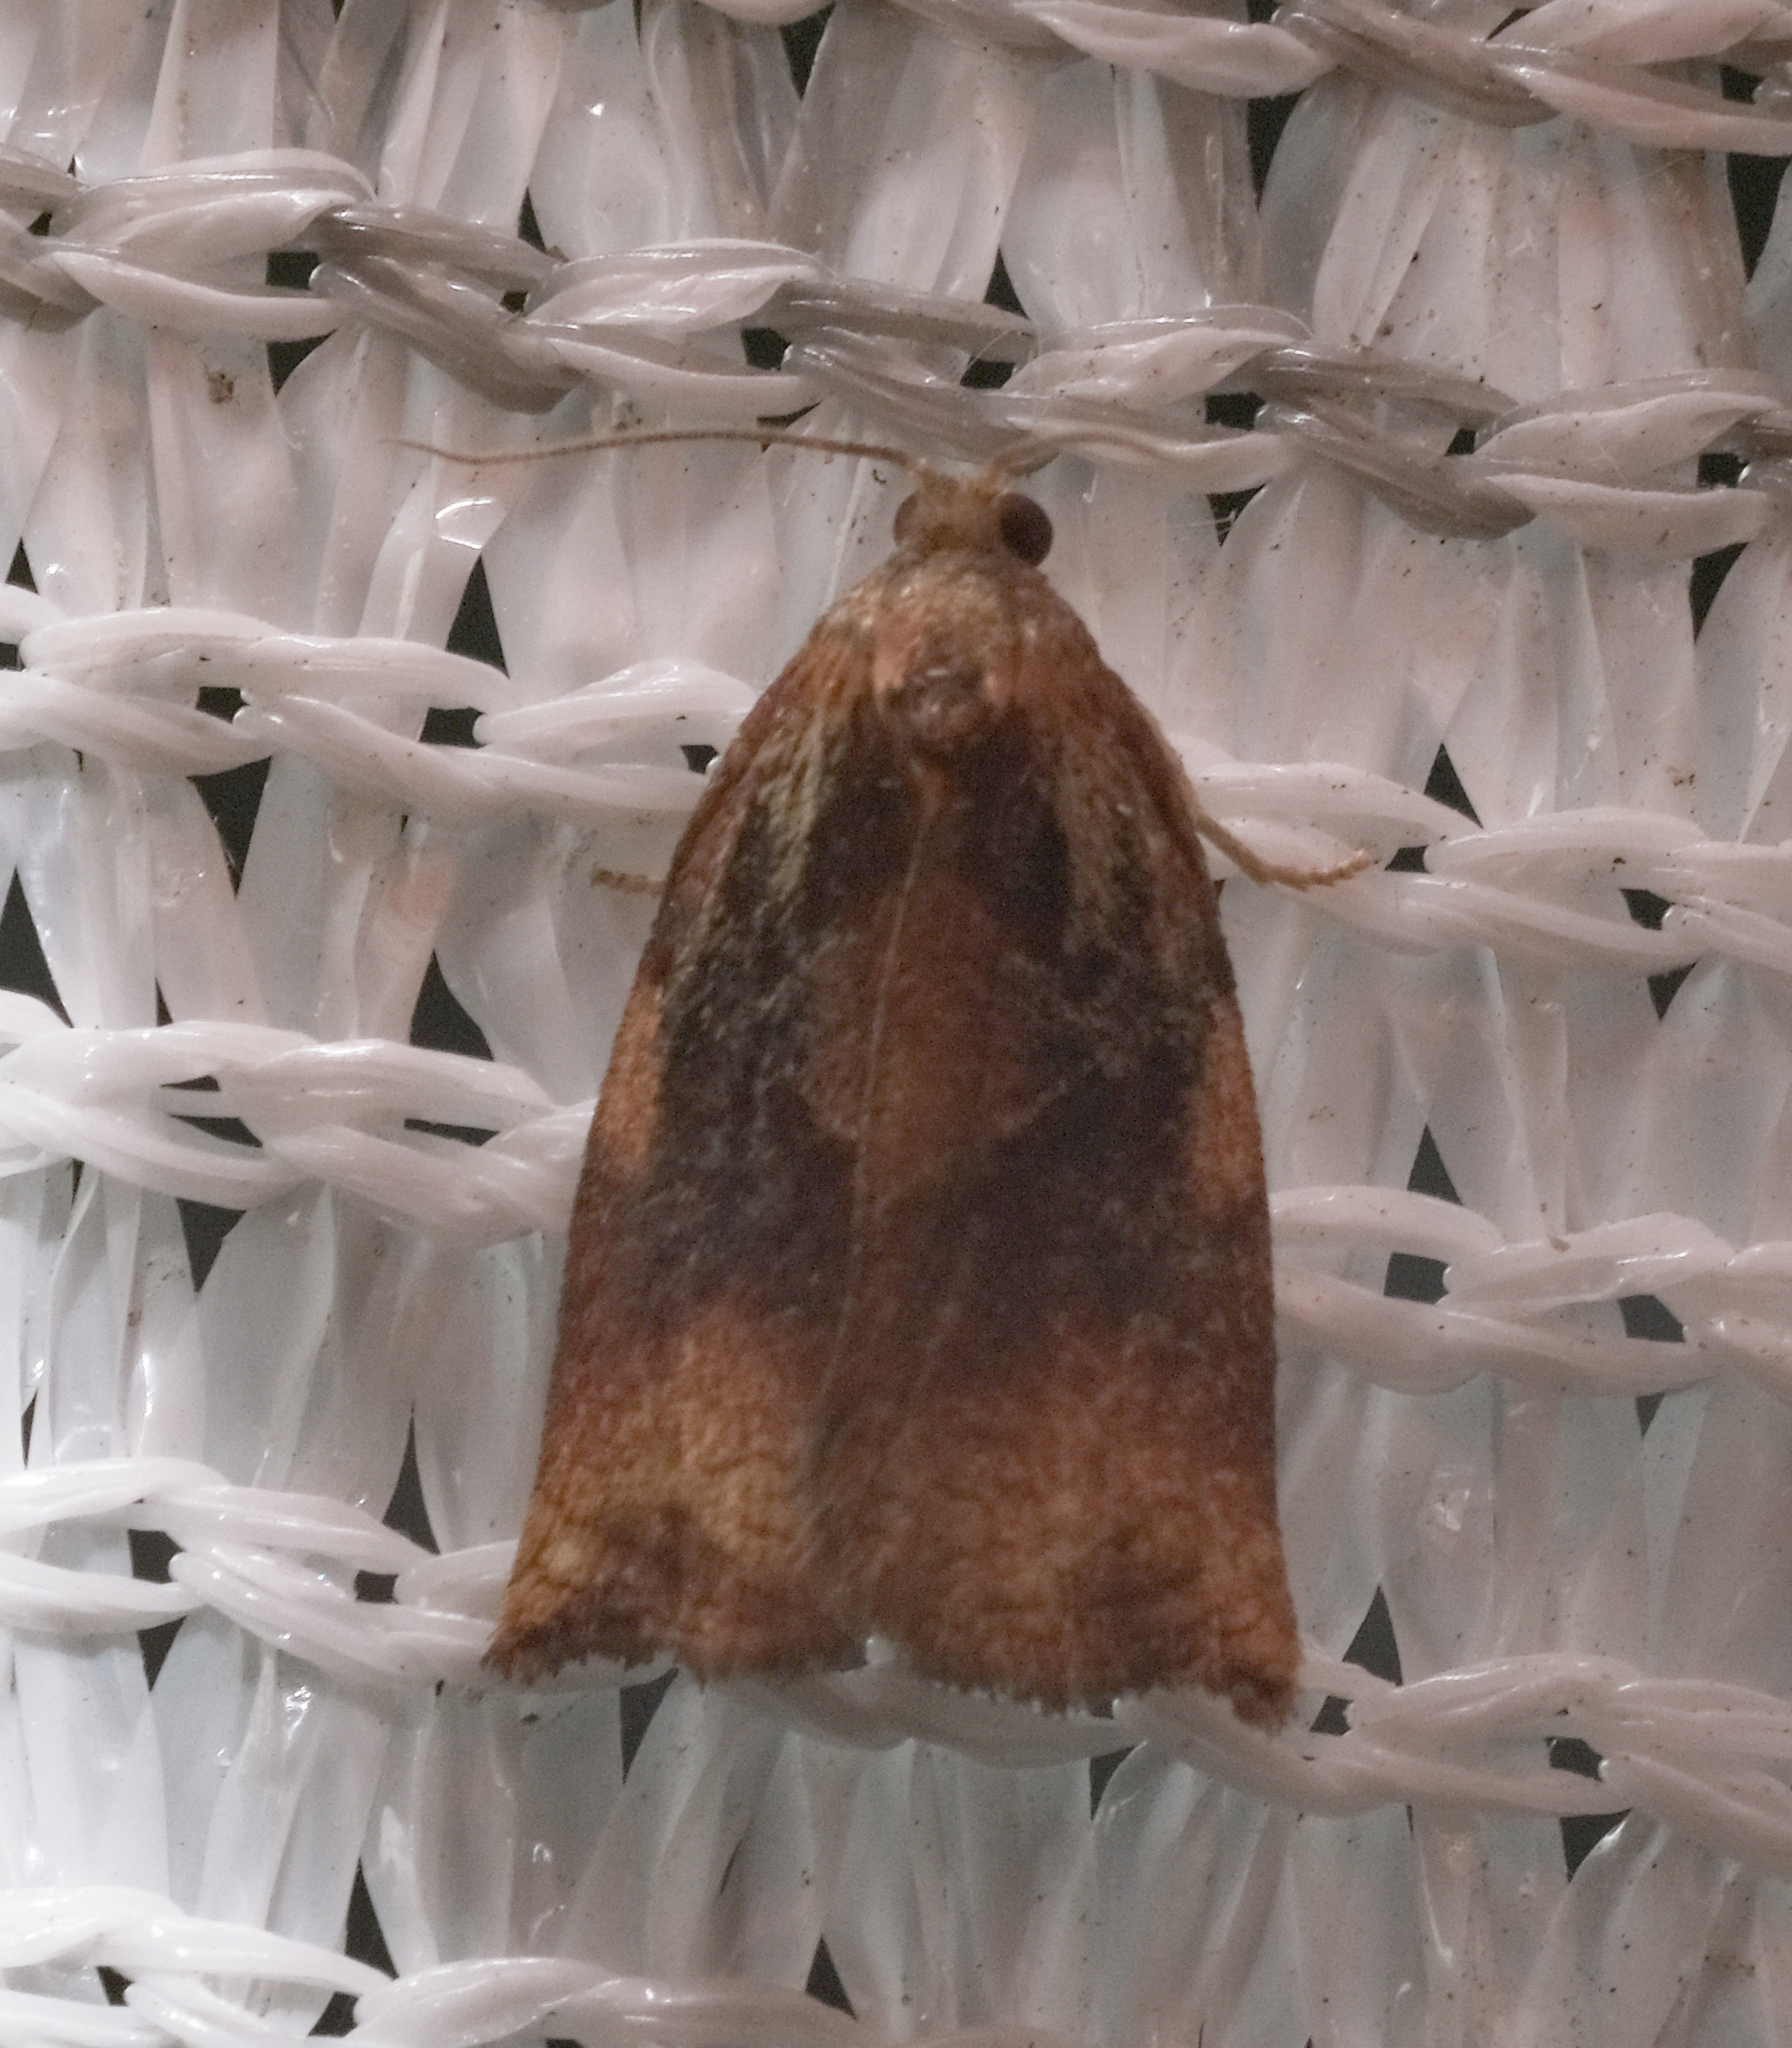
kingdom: Animalia
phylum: Arthropoda
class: Insecta
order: Lepidoptera
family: Tortricidae
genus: Archips
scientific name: Archips podana
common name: Large fruit-tree tortrix
